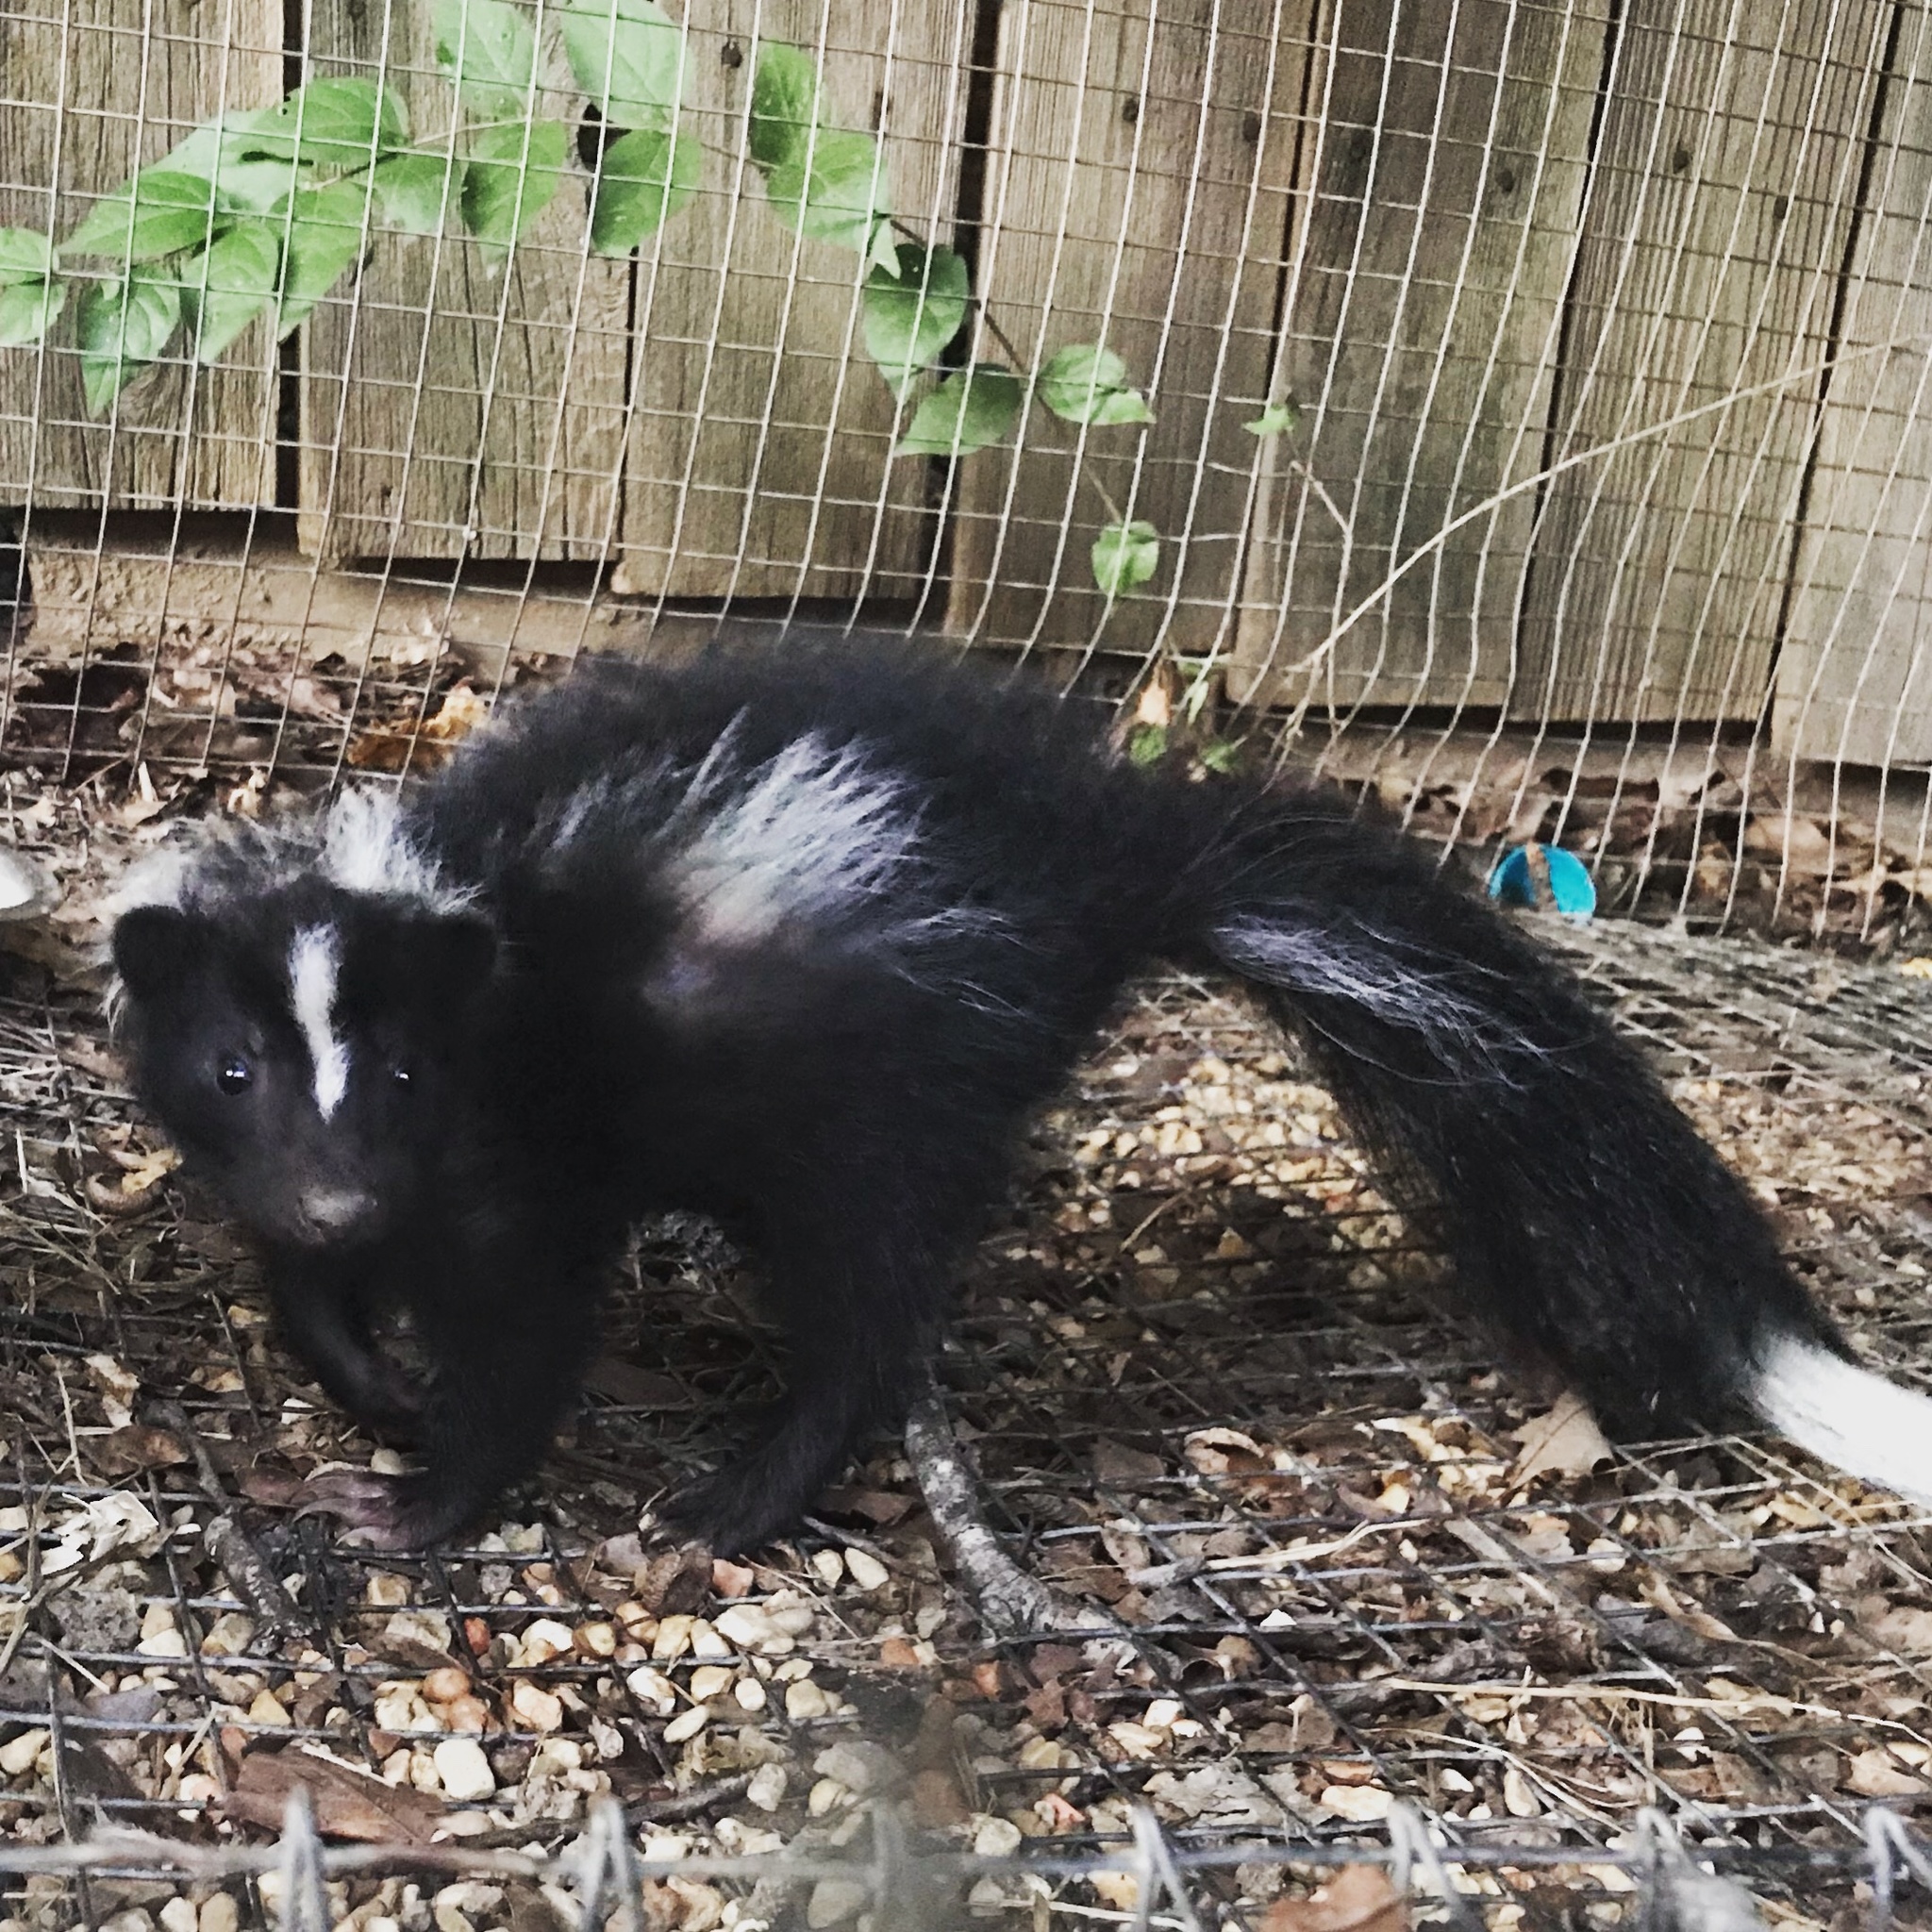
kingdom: Animalia
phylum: Chordata
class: Mammalia
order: Carnivora
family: Mephitidae
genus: Mephitis
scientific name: Mephitis mephitis
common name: Striped skunk
